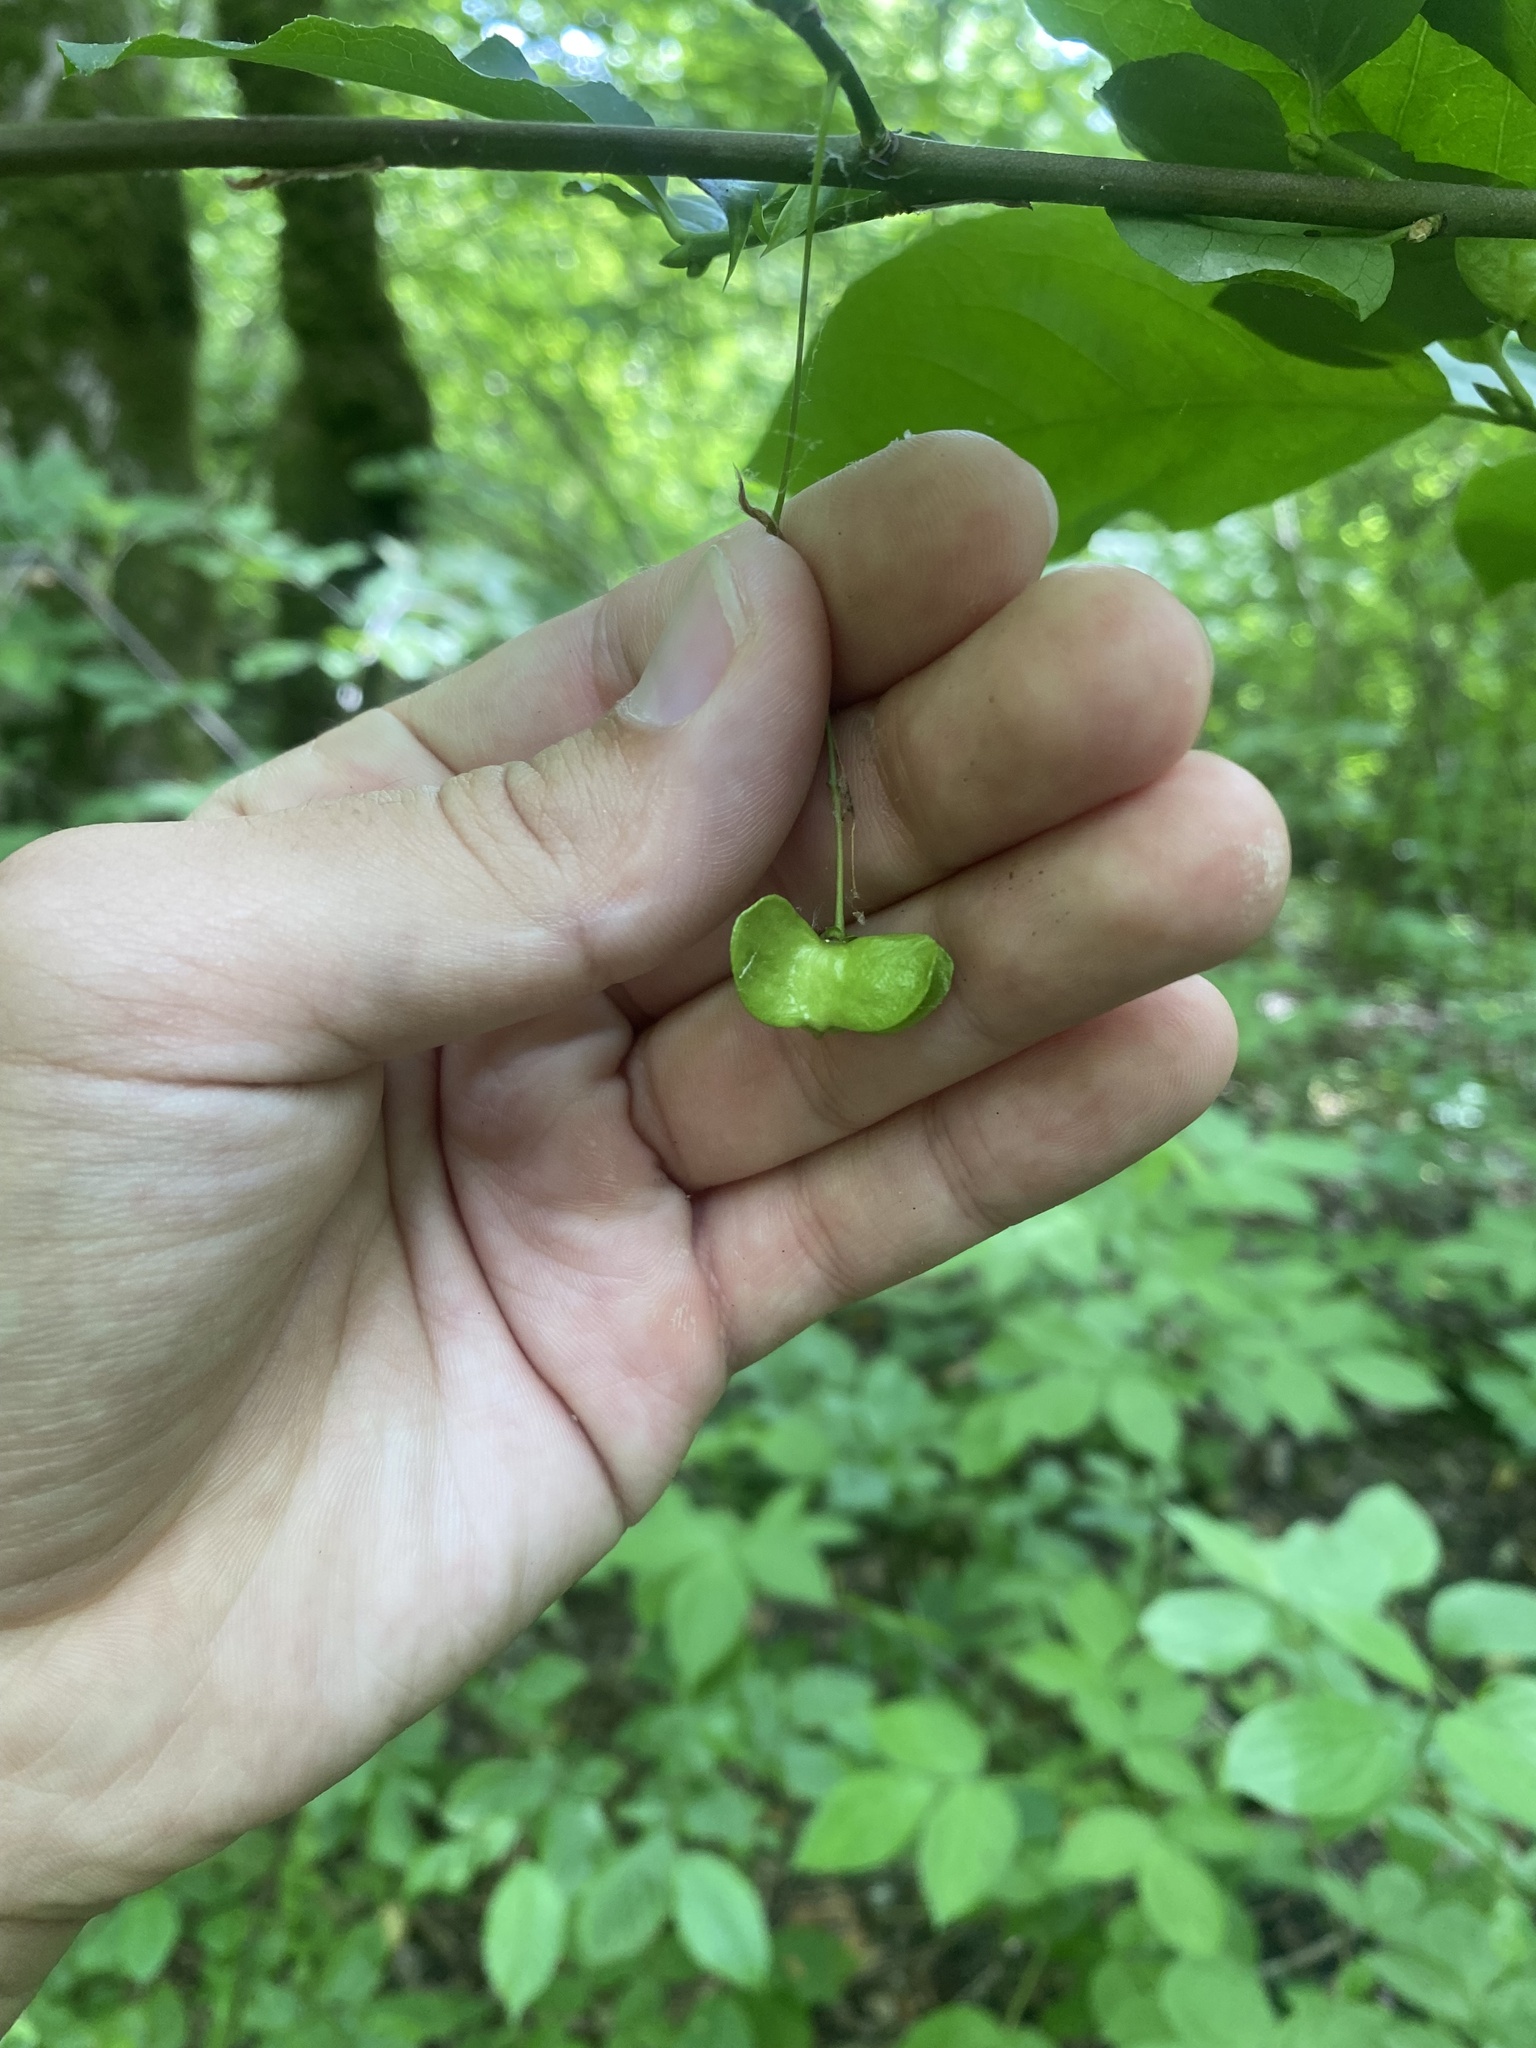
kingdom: Plantae
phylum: Tracheophyta
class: Magnoliopsida
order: Celastrales
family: Celastraceae
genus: Euonymus
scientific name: Euonymus latifolius
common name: Large-leaved spindle
